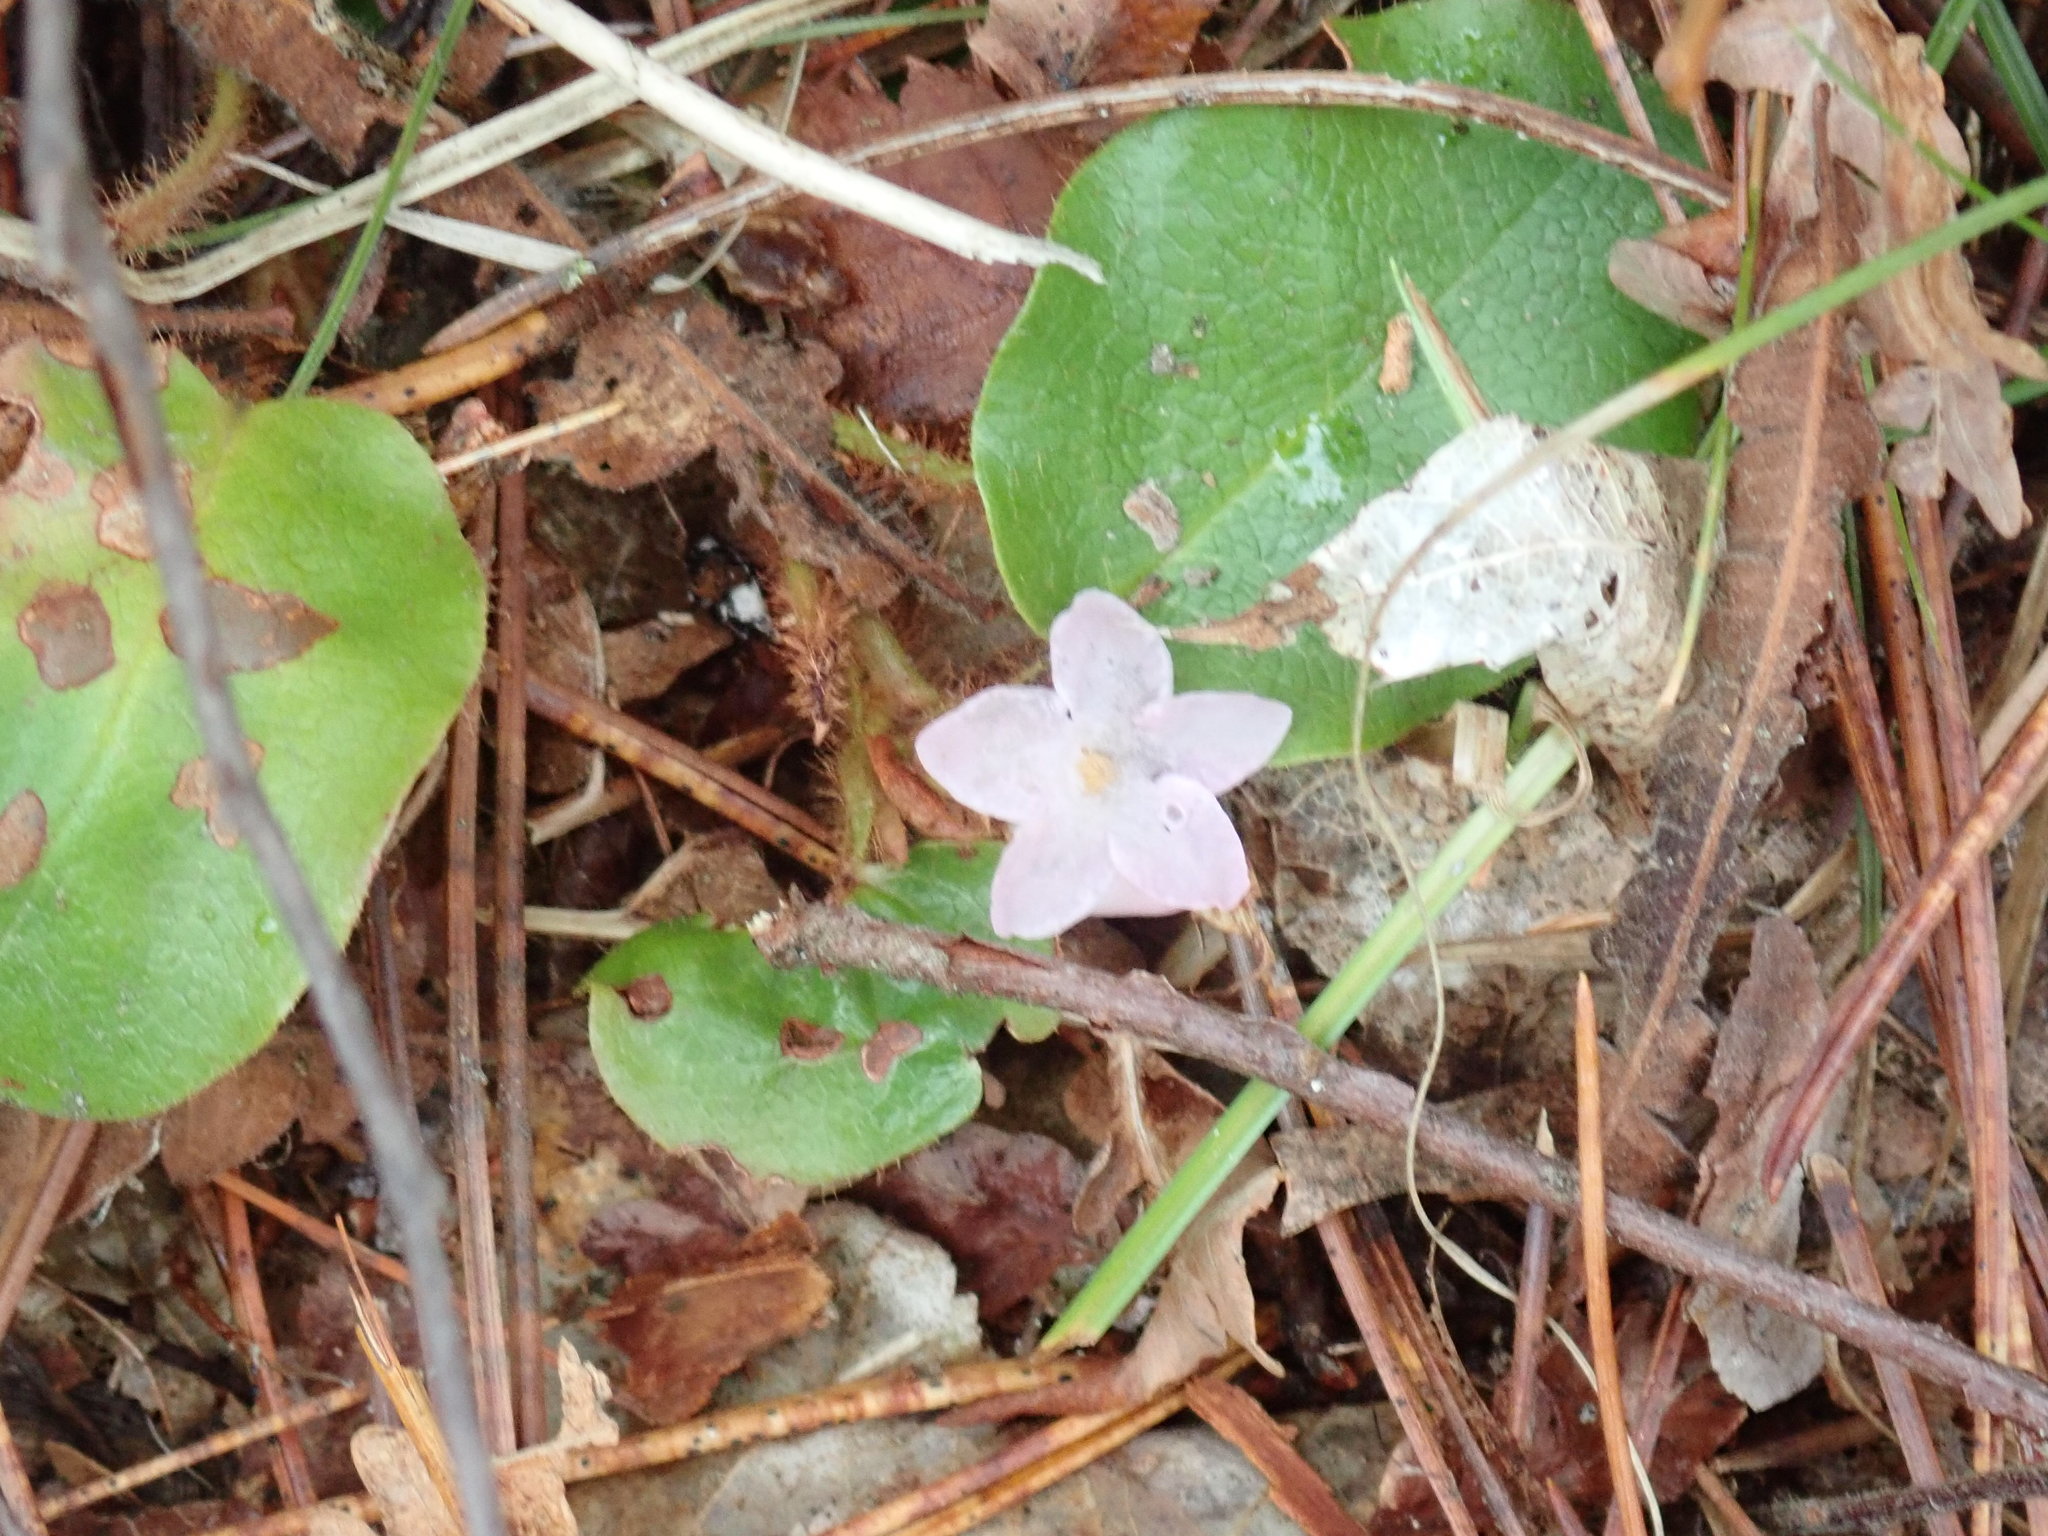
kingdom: Plantae
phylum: Tracheophyta
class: Magnoliopsida
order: Ericales
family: Ericaceae
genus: Epigaea
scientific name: Epigaea repens
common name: Gravelroot
